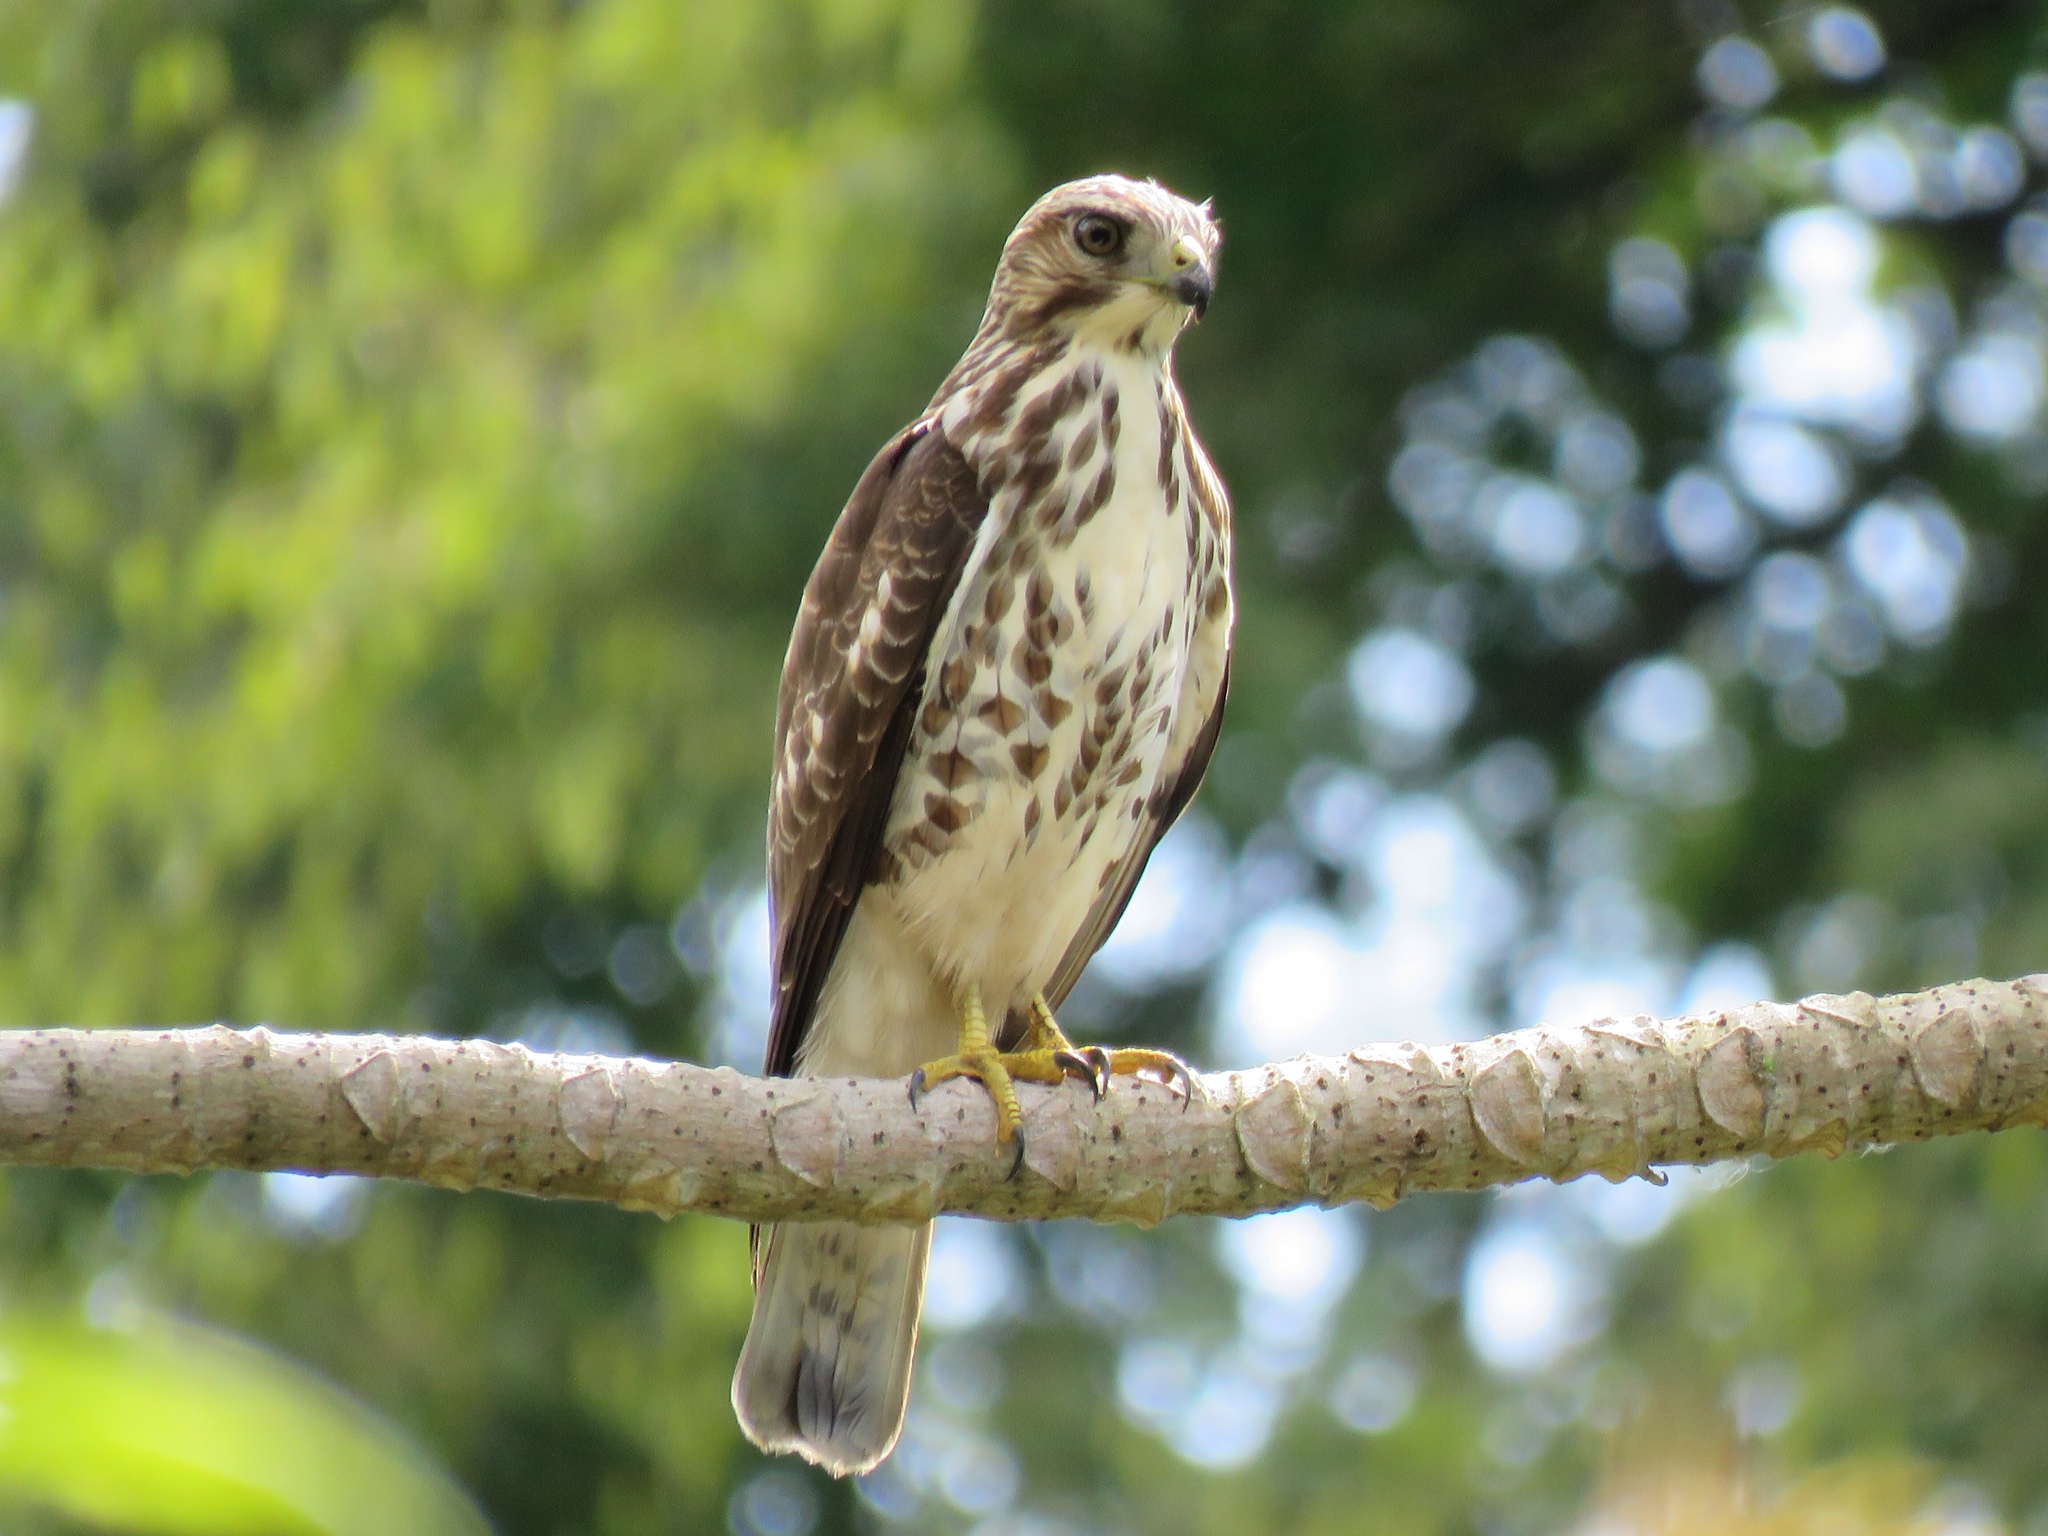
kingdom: Animalia
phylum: Chordata
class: Aves
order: Accipitriformes
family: Accipitridae
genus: Buteo
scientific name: Buteo platypterus
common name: Broad-winged hawk
